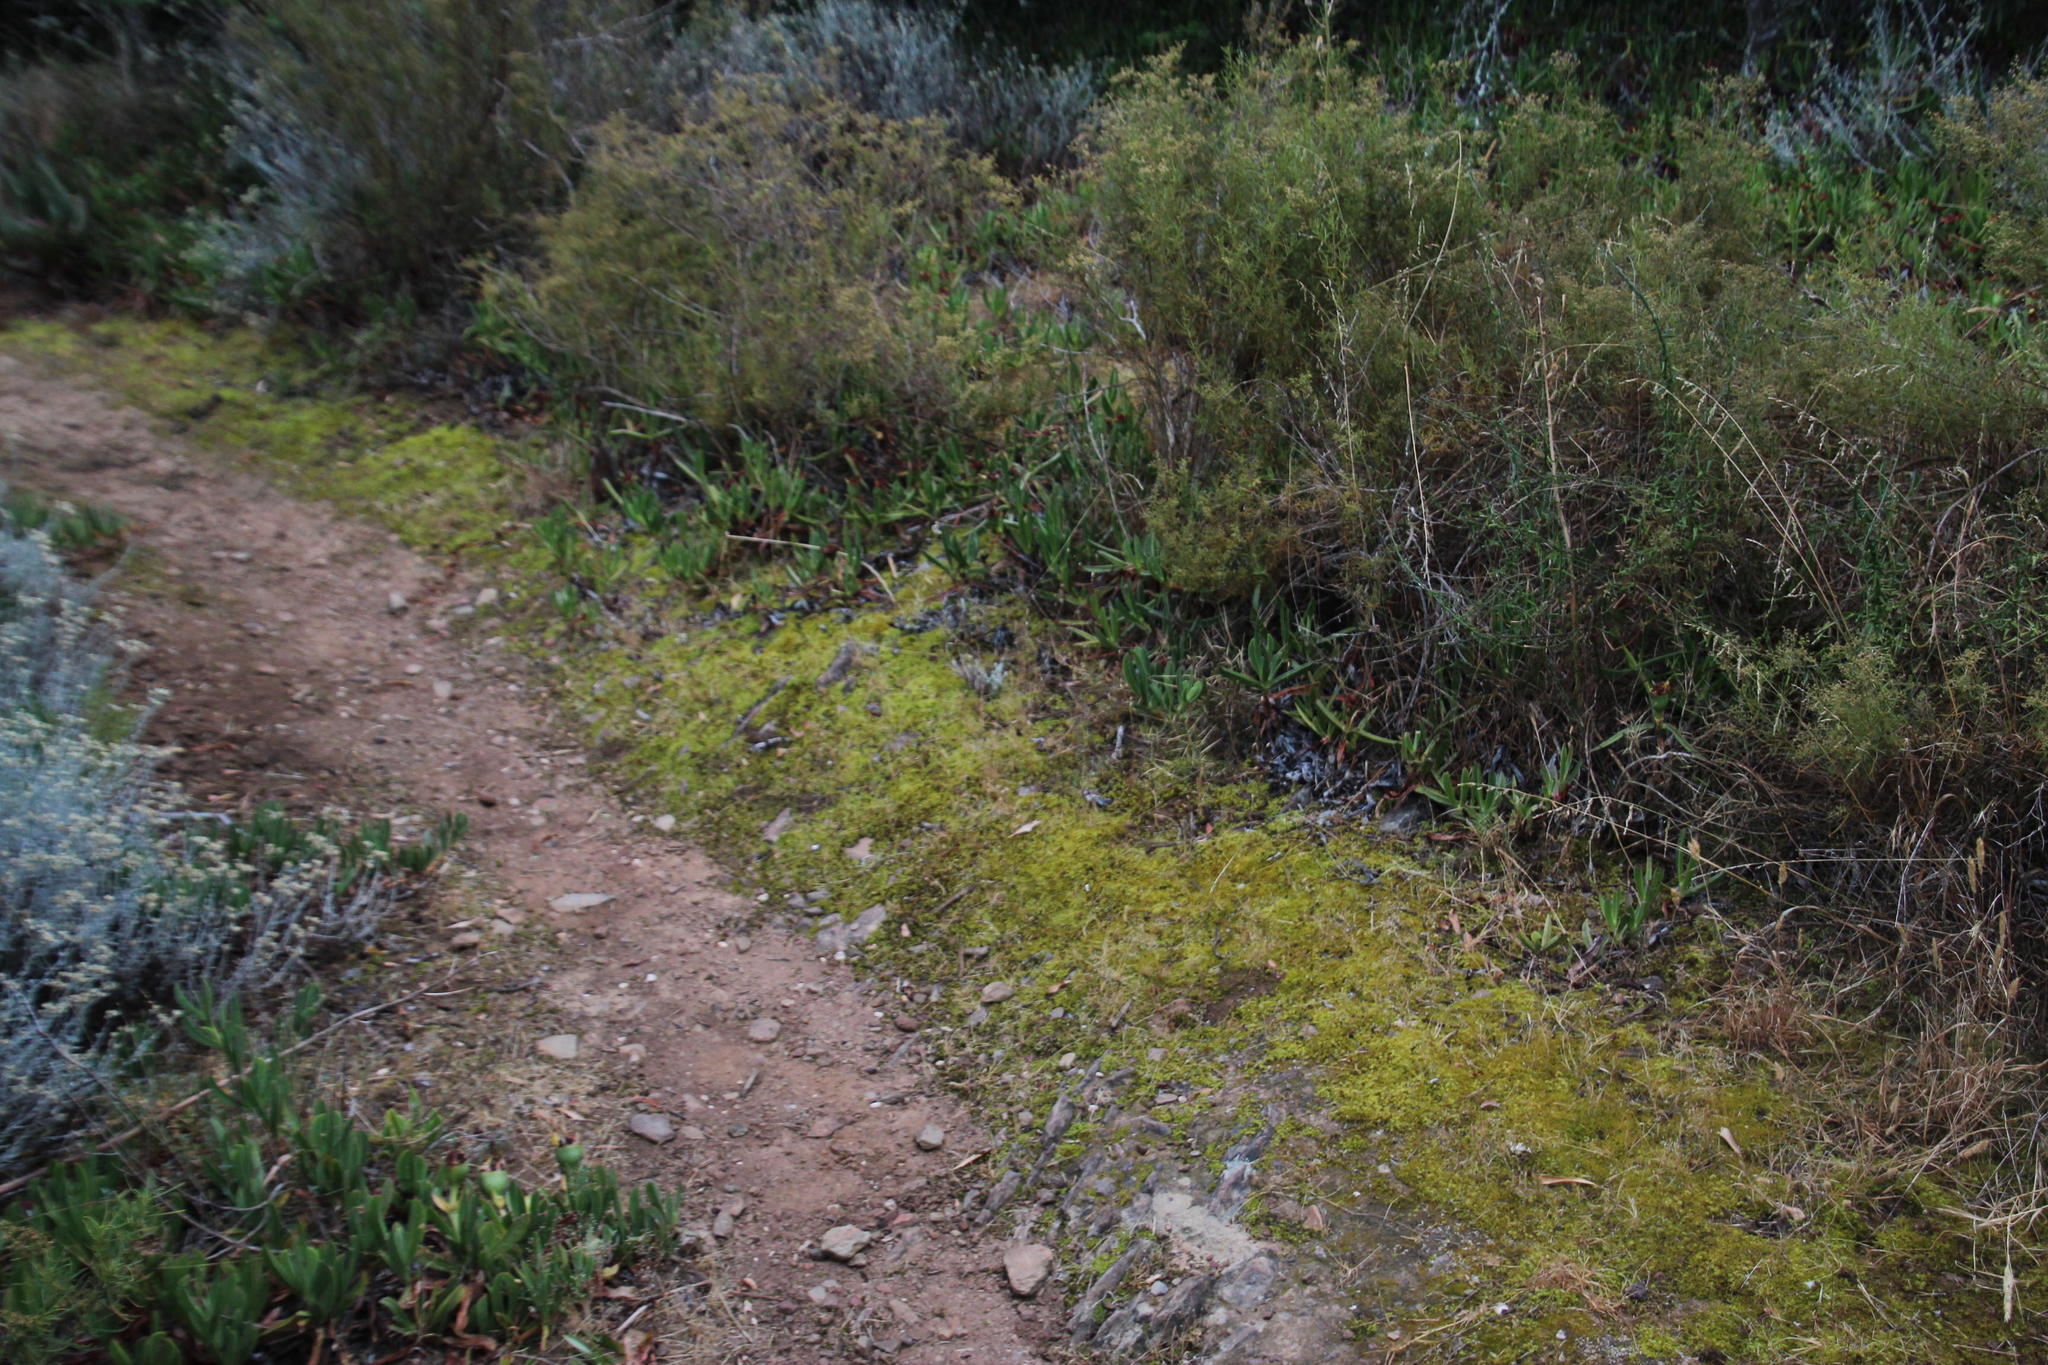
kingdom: Plantae
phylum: Bryophyta
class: Bryopsida
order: Pottiales
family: Pottiaceae
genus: Triquetrella
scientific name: Triquetrella tristicha
